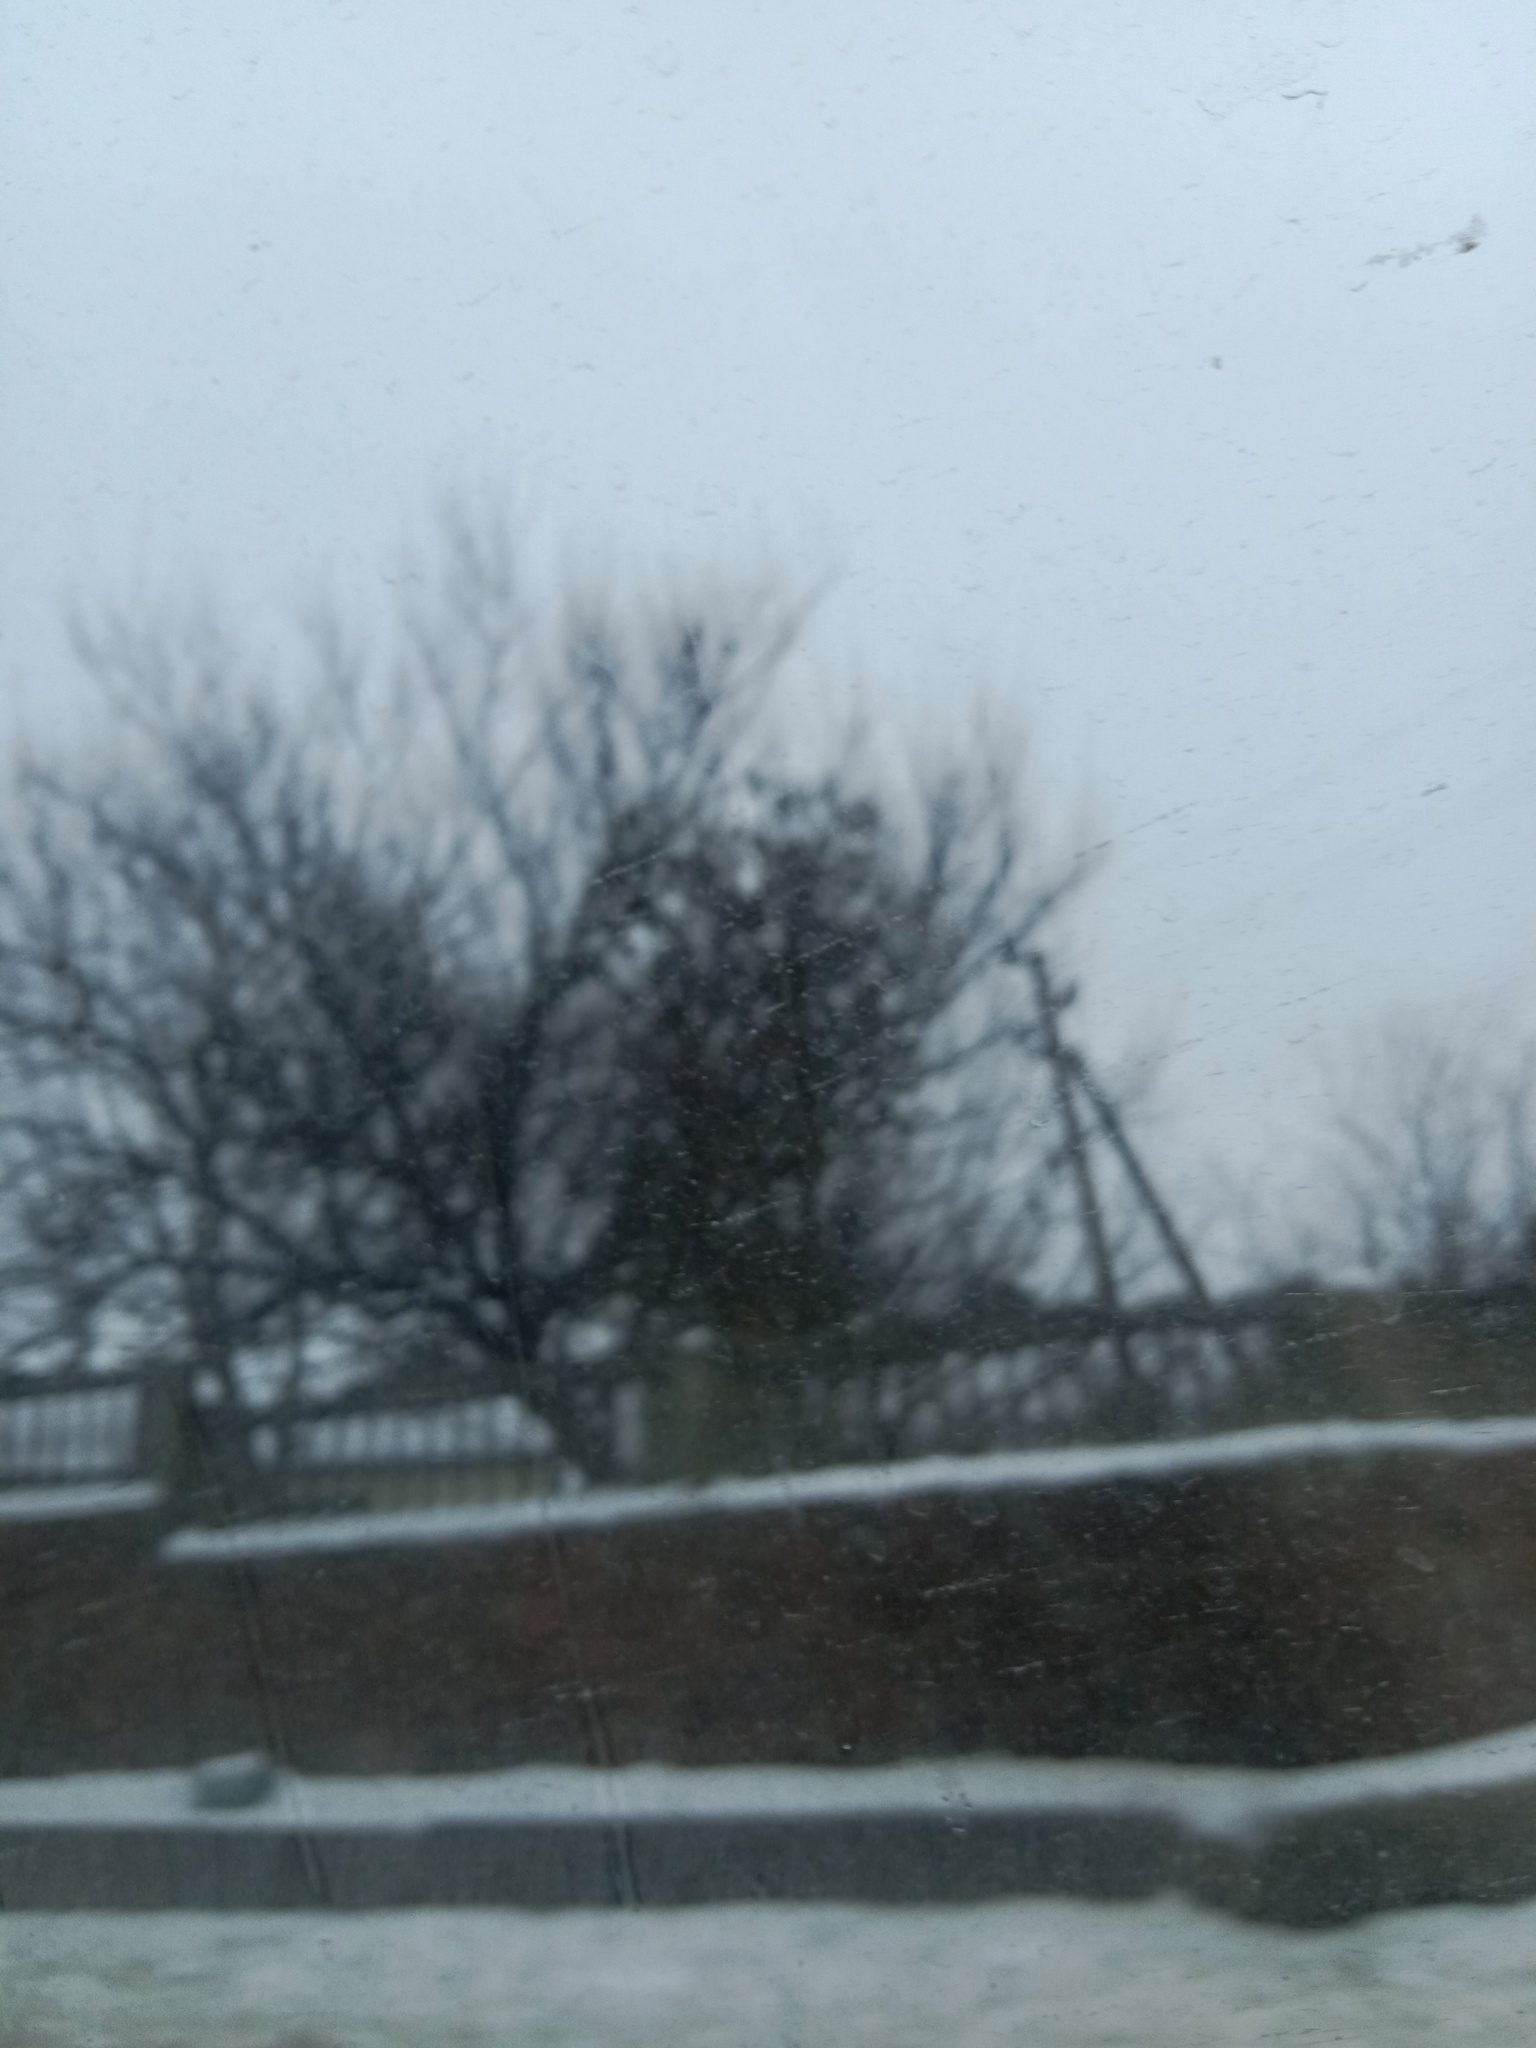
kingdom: Plantae
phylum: Tracheophyta
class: Magnoliopsida
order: Santalales
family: Viscaceae
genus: Viscum
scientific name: Viscum album
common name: Mistletoe
